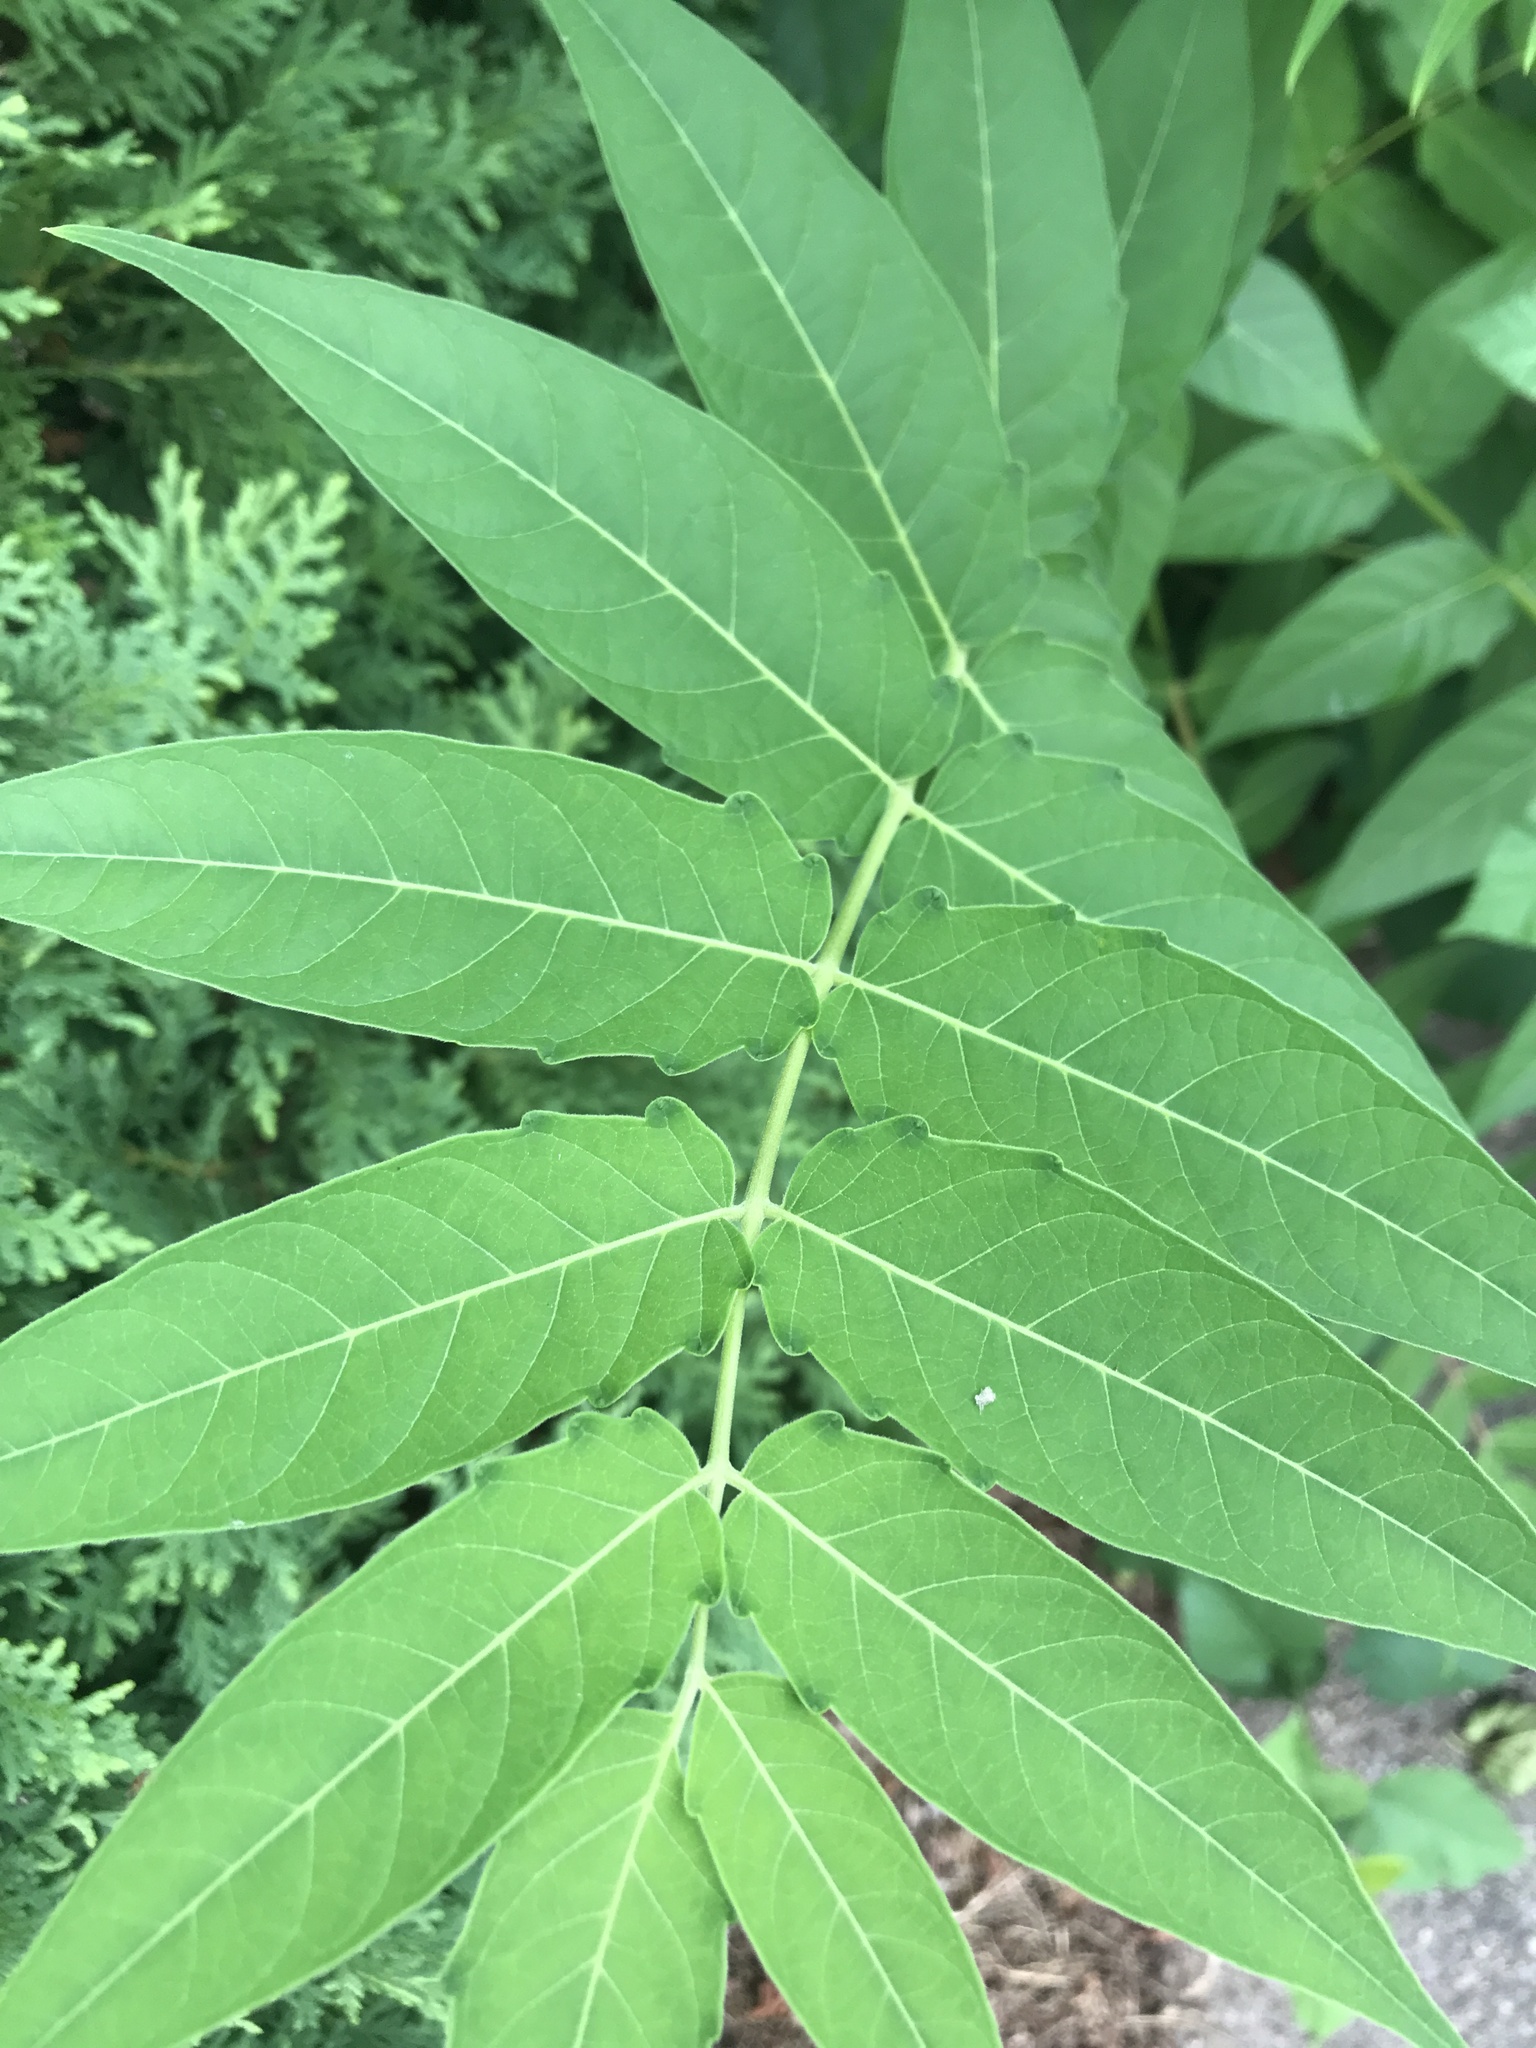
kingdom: Plantae
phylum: Tracheophyta
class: Magnoliopsida
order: Sapindales
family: Simaroubaceae
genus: Ailanthus
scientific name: Ailanthus altissima
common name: Tree-of-heaven
